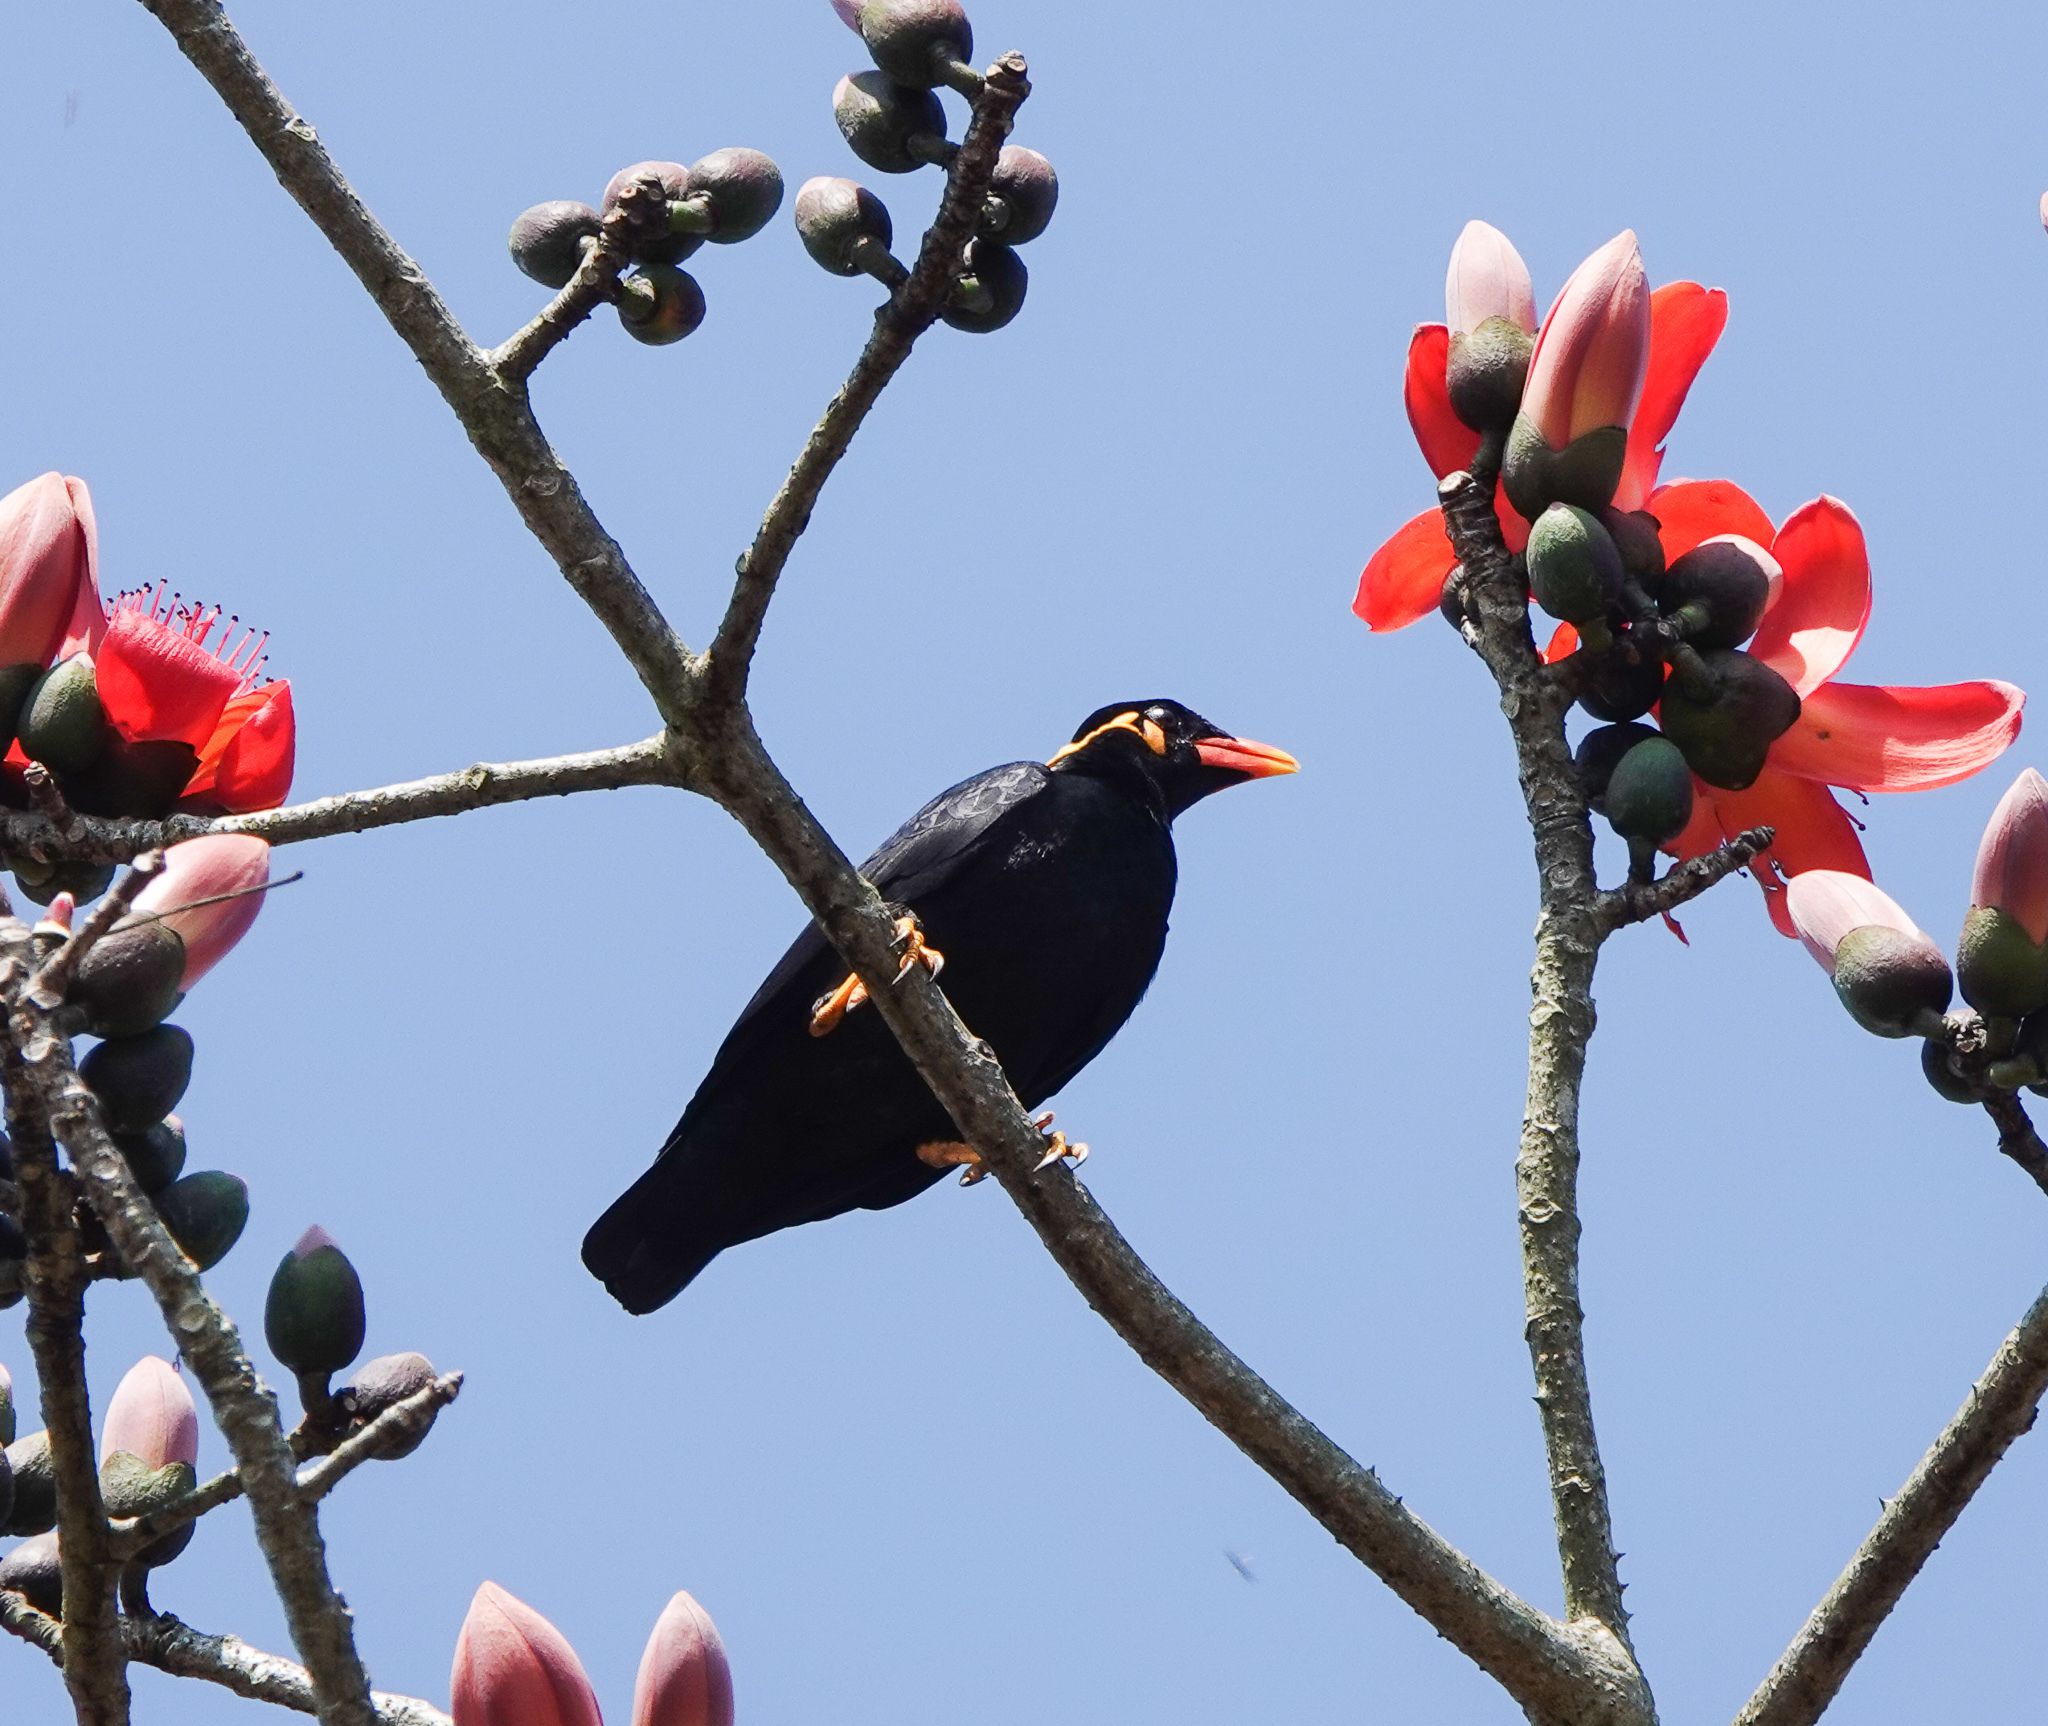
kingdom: Animalia
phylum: Chordata
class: Aves
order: Passeriformes
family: Sturnidae
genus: Gracula
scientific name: Gracula religiosa
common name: Common hill myna
